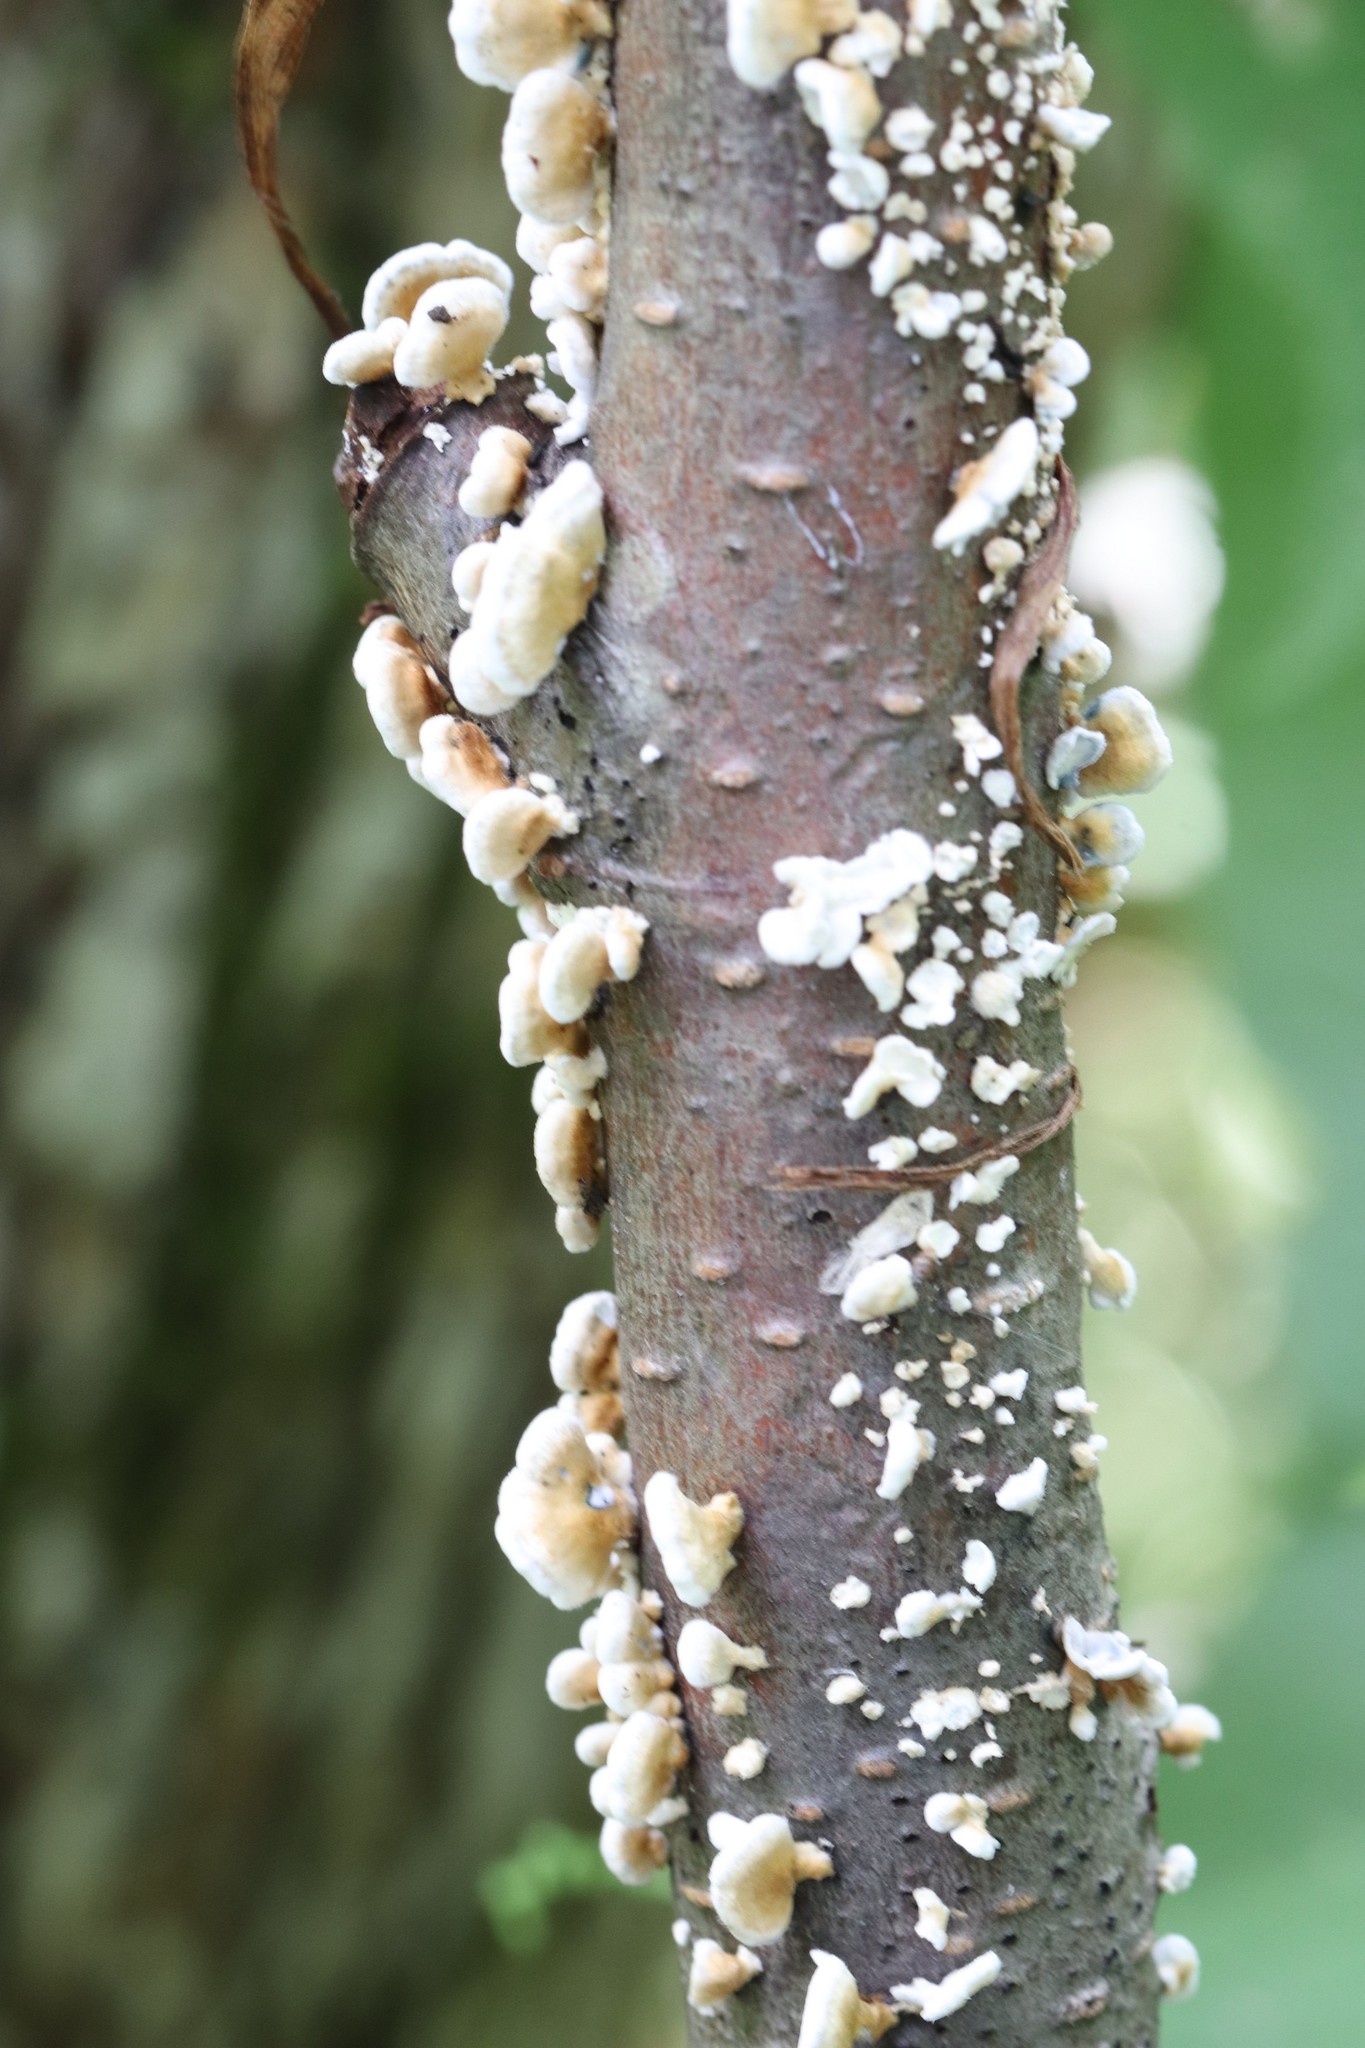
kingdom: Fungi
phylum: Basidiomycota
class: Agaricomycetes
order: Amylocorticiales
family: Amylocorticiaceae
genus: Plicaturopsis
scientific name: Plicaturopsis crispa
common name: Crimped gill
